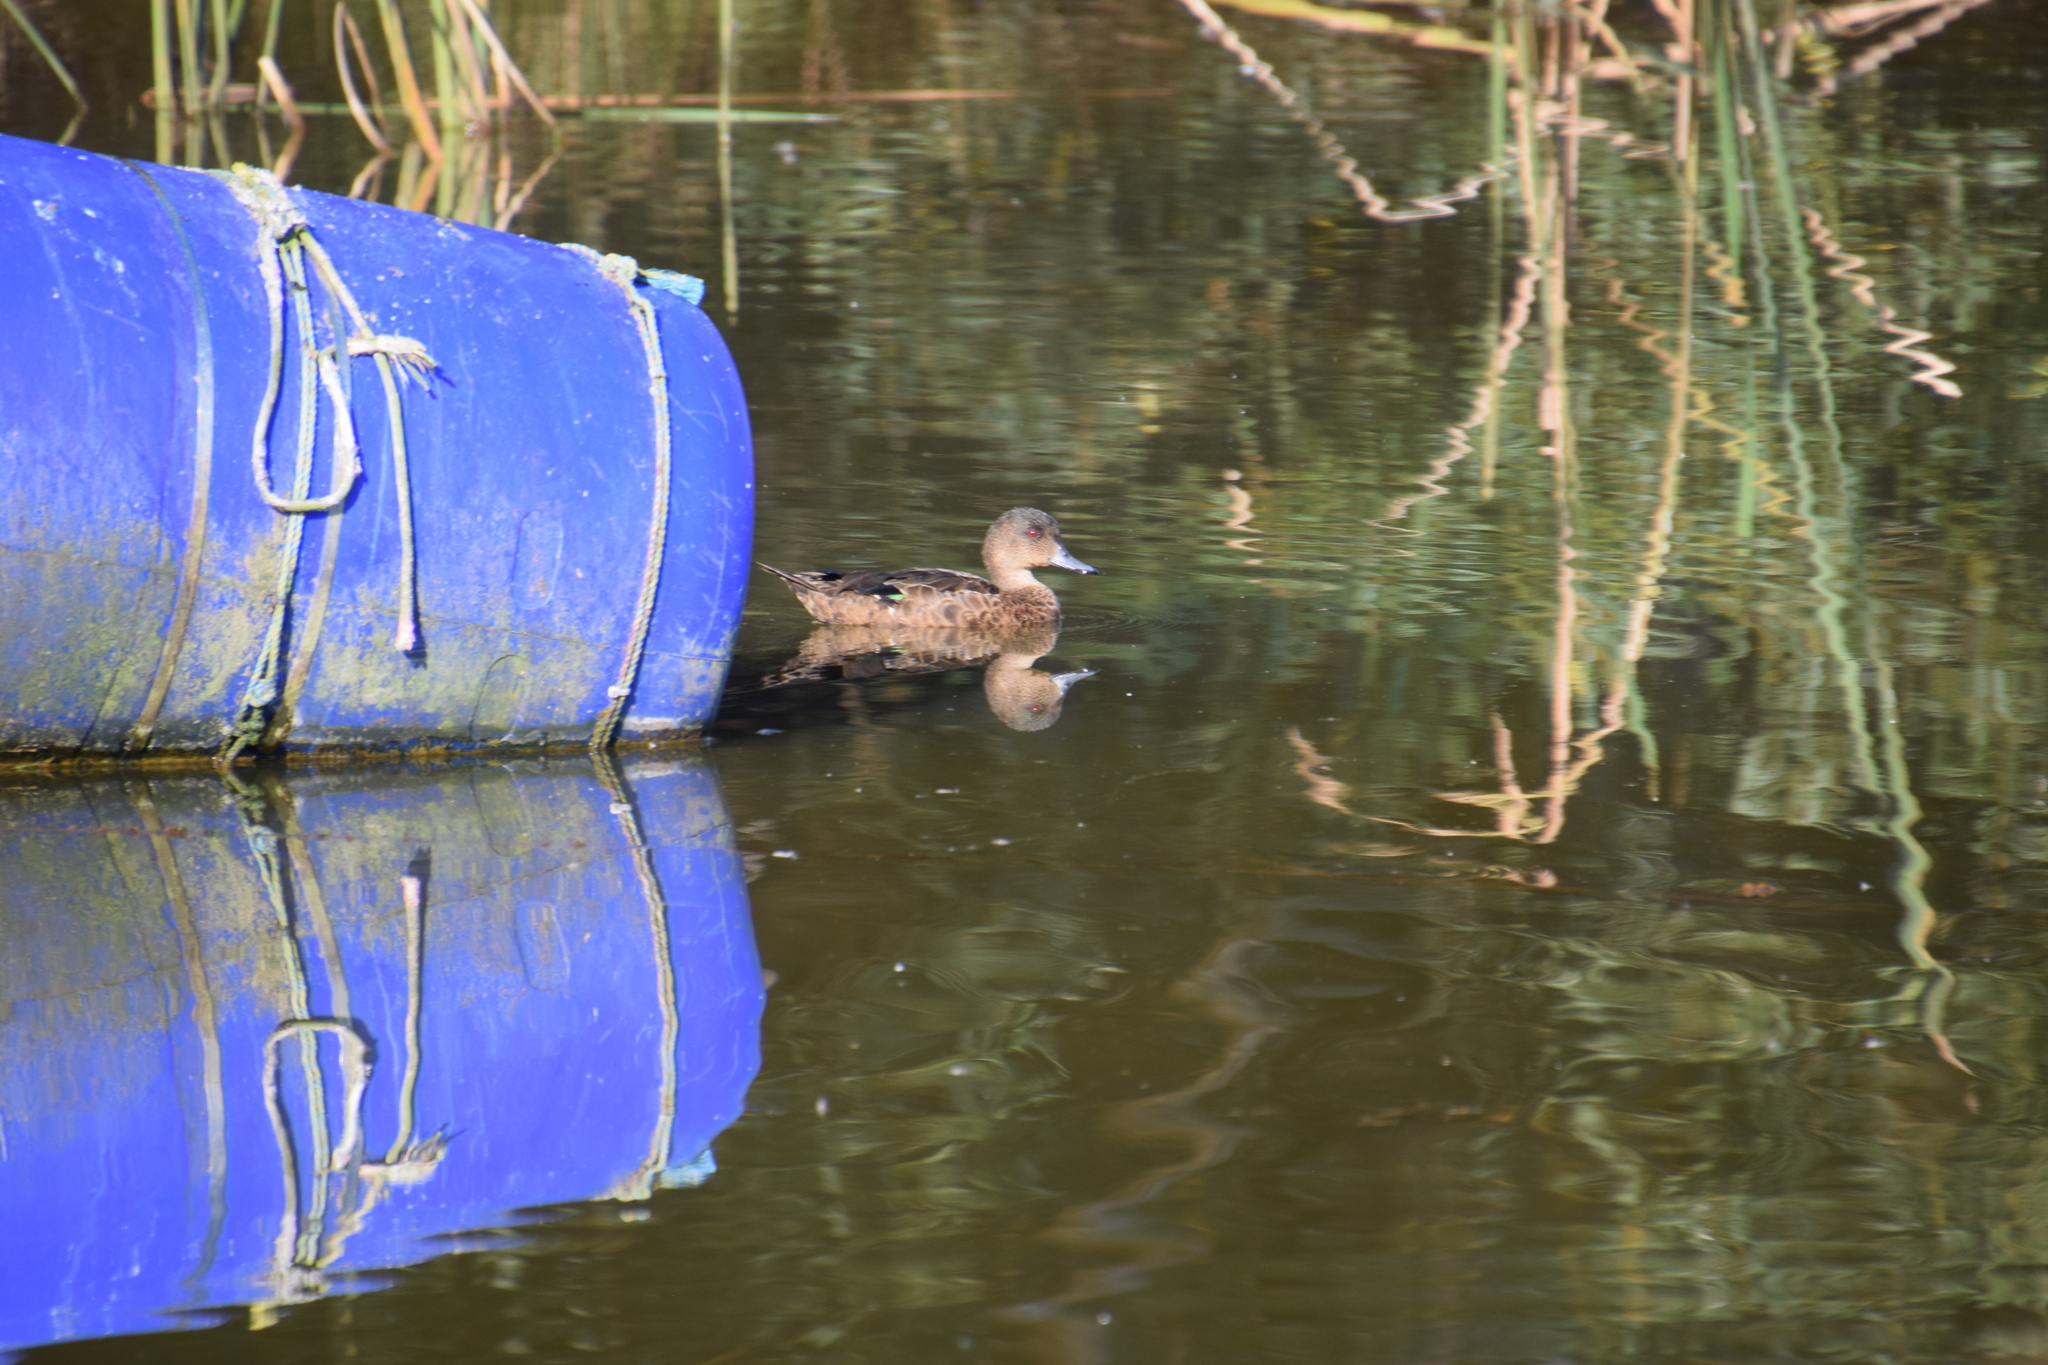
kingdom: Animalia
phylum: Chordata
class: Aves
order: Anseriformes
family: Anatidae
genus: Anas
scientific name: Anas castanea
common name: Chestnut teal
